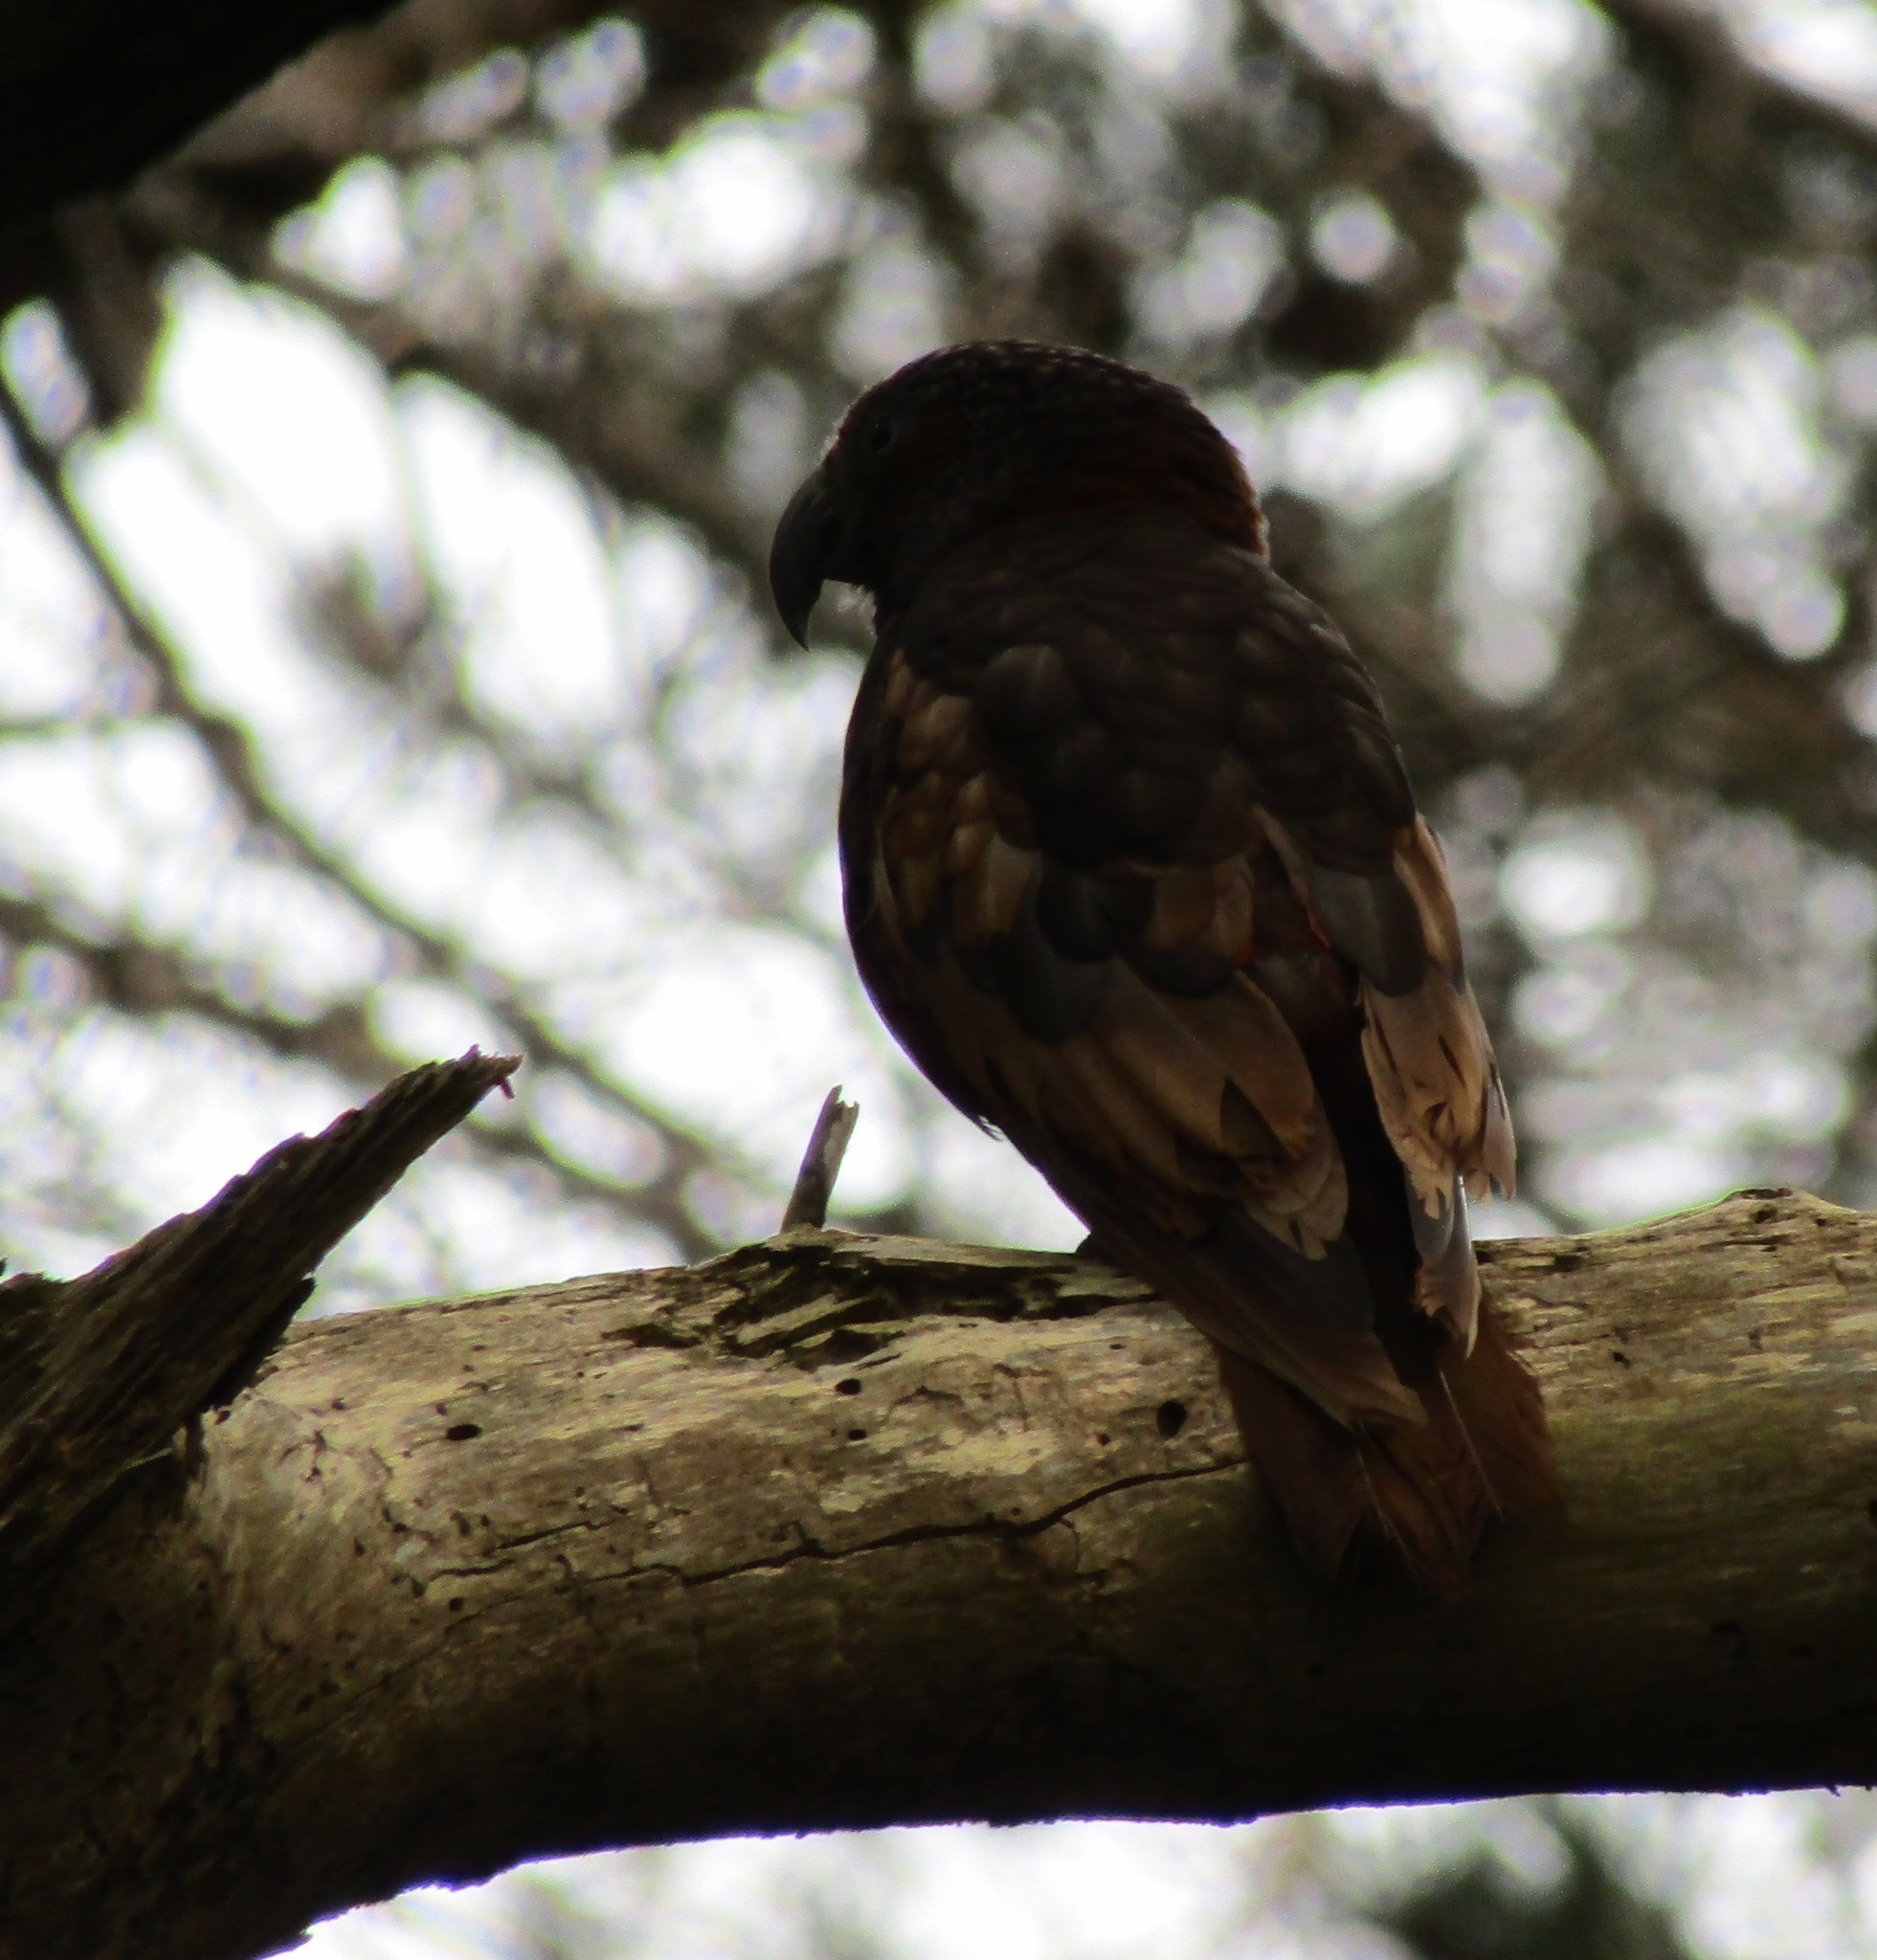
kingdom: Animalia
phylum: Chordata
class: Aves
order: Psittaciformes
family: Psittacidae
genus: Nestor
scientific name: Nestor meridionalis
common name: New zealand kaka
